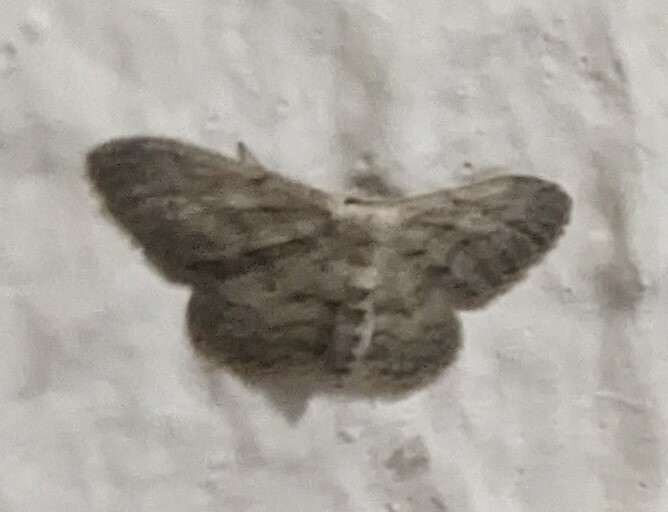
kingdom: Animalia
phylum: Arthropoda
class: Insecta
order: Lepidoptera
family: Geometridae
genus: Idaea
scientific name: Idaea seriata
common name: Small dusty wave
